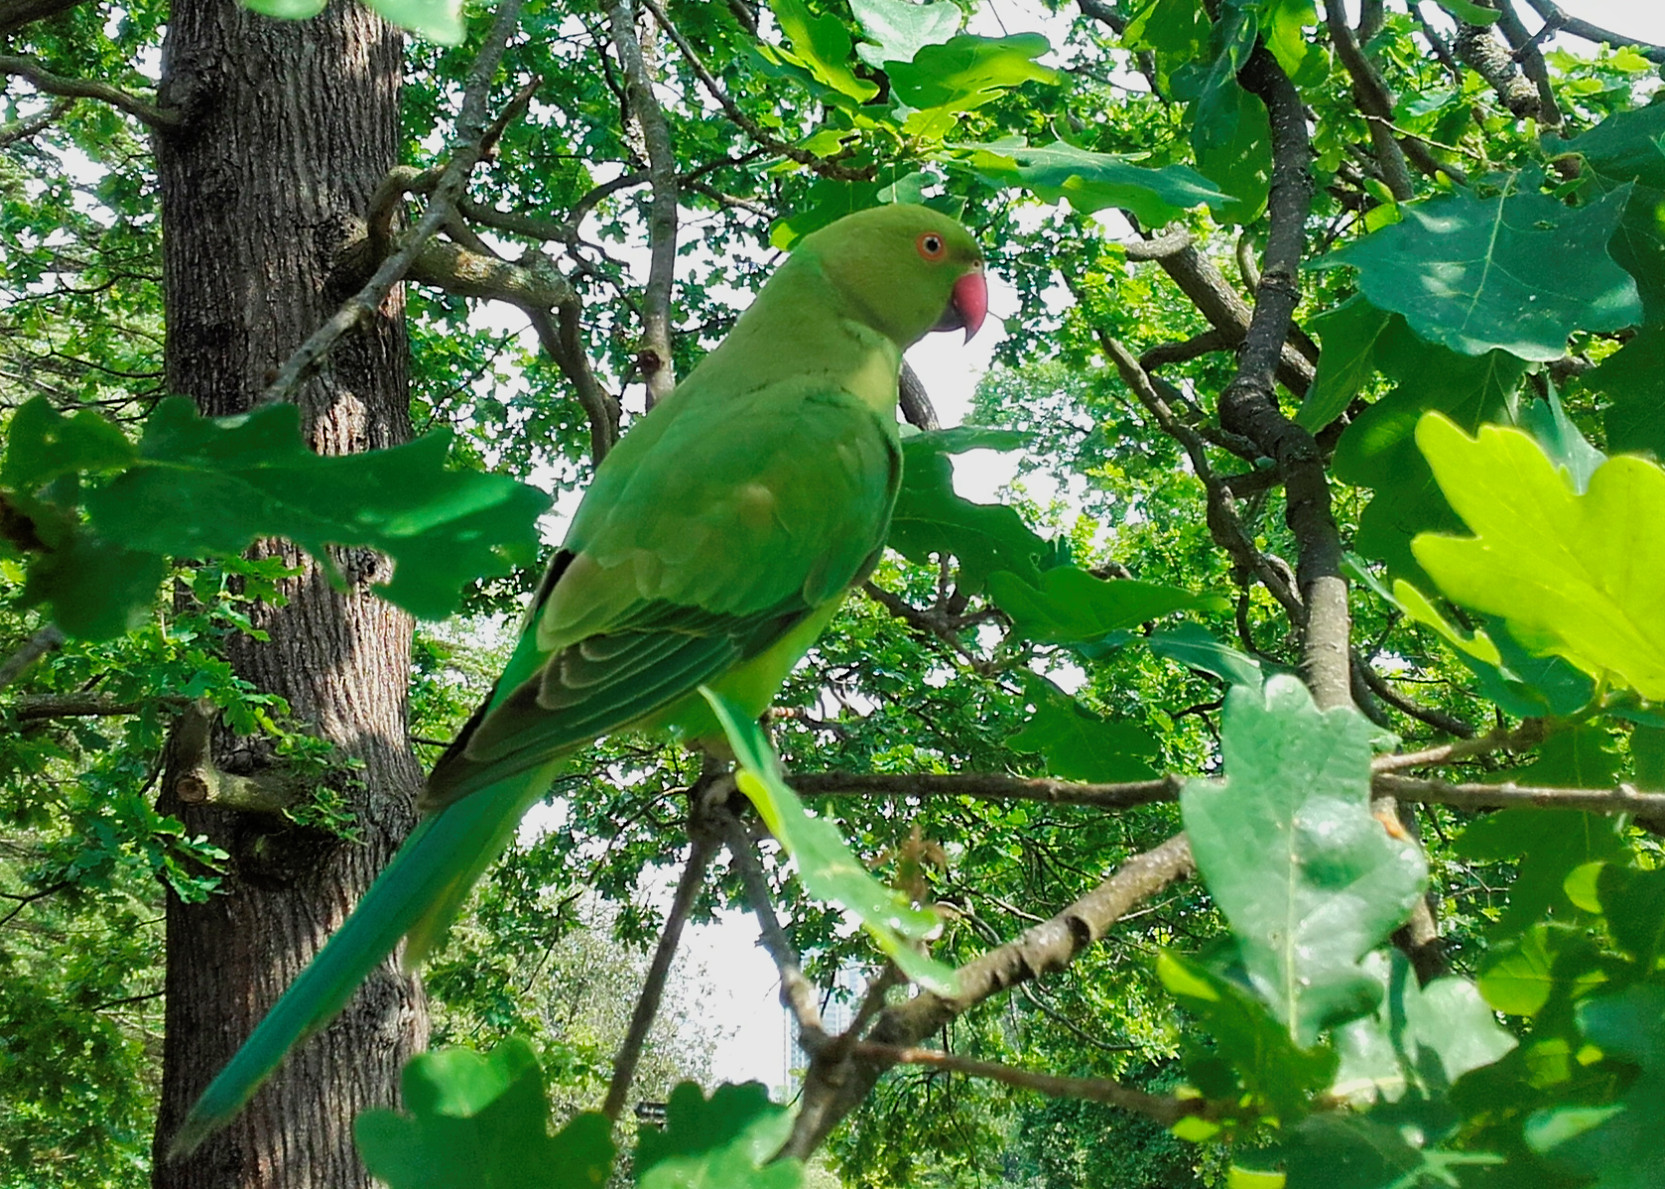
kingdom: Animalia
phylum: Chordata
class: Aves
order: Psittaciformes
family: Psittacidae
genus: Psittacula
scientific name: Psittacula krameri
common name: Rose-ringed parakeet
